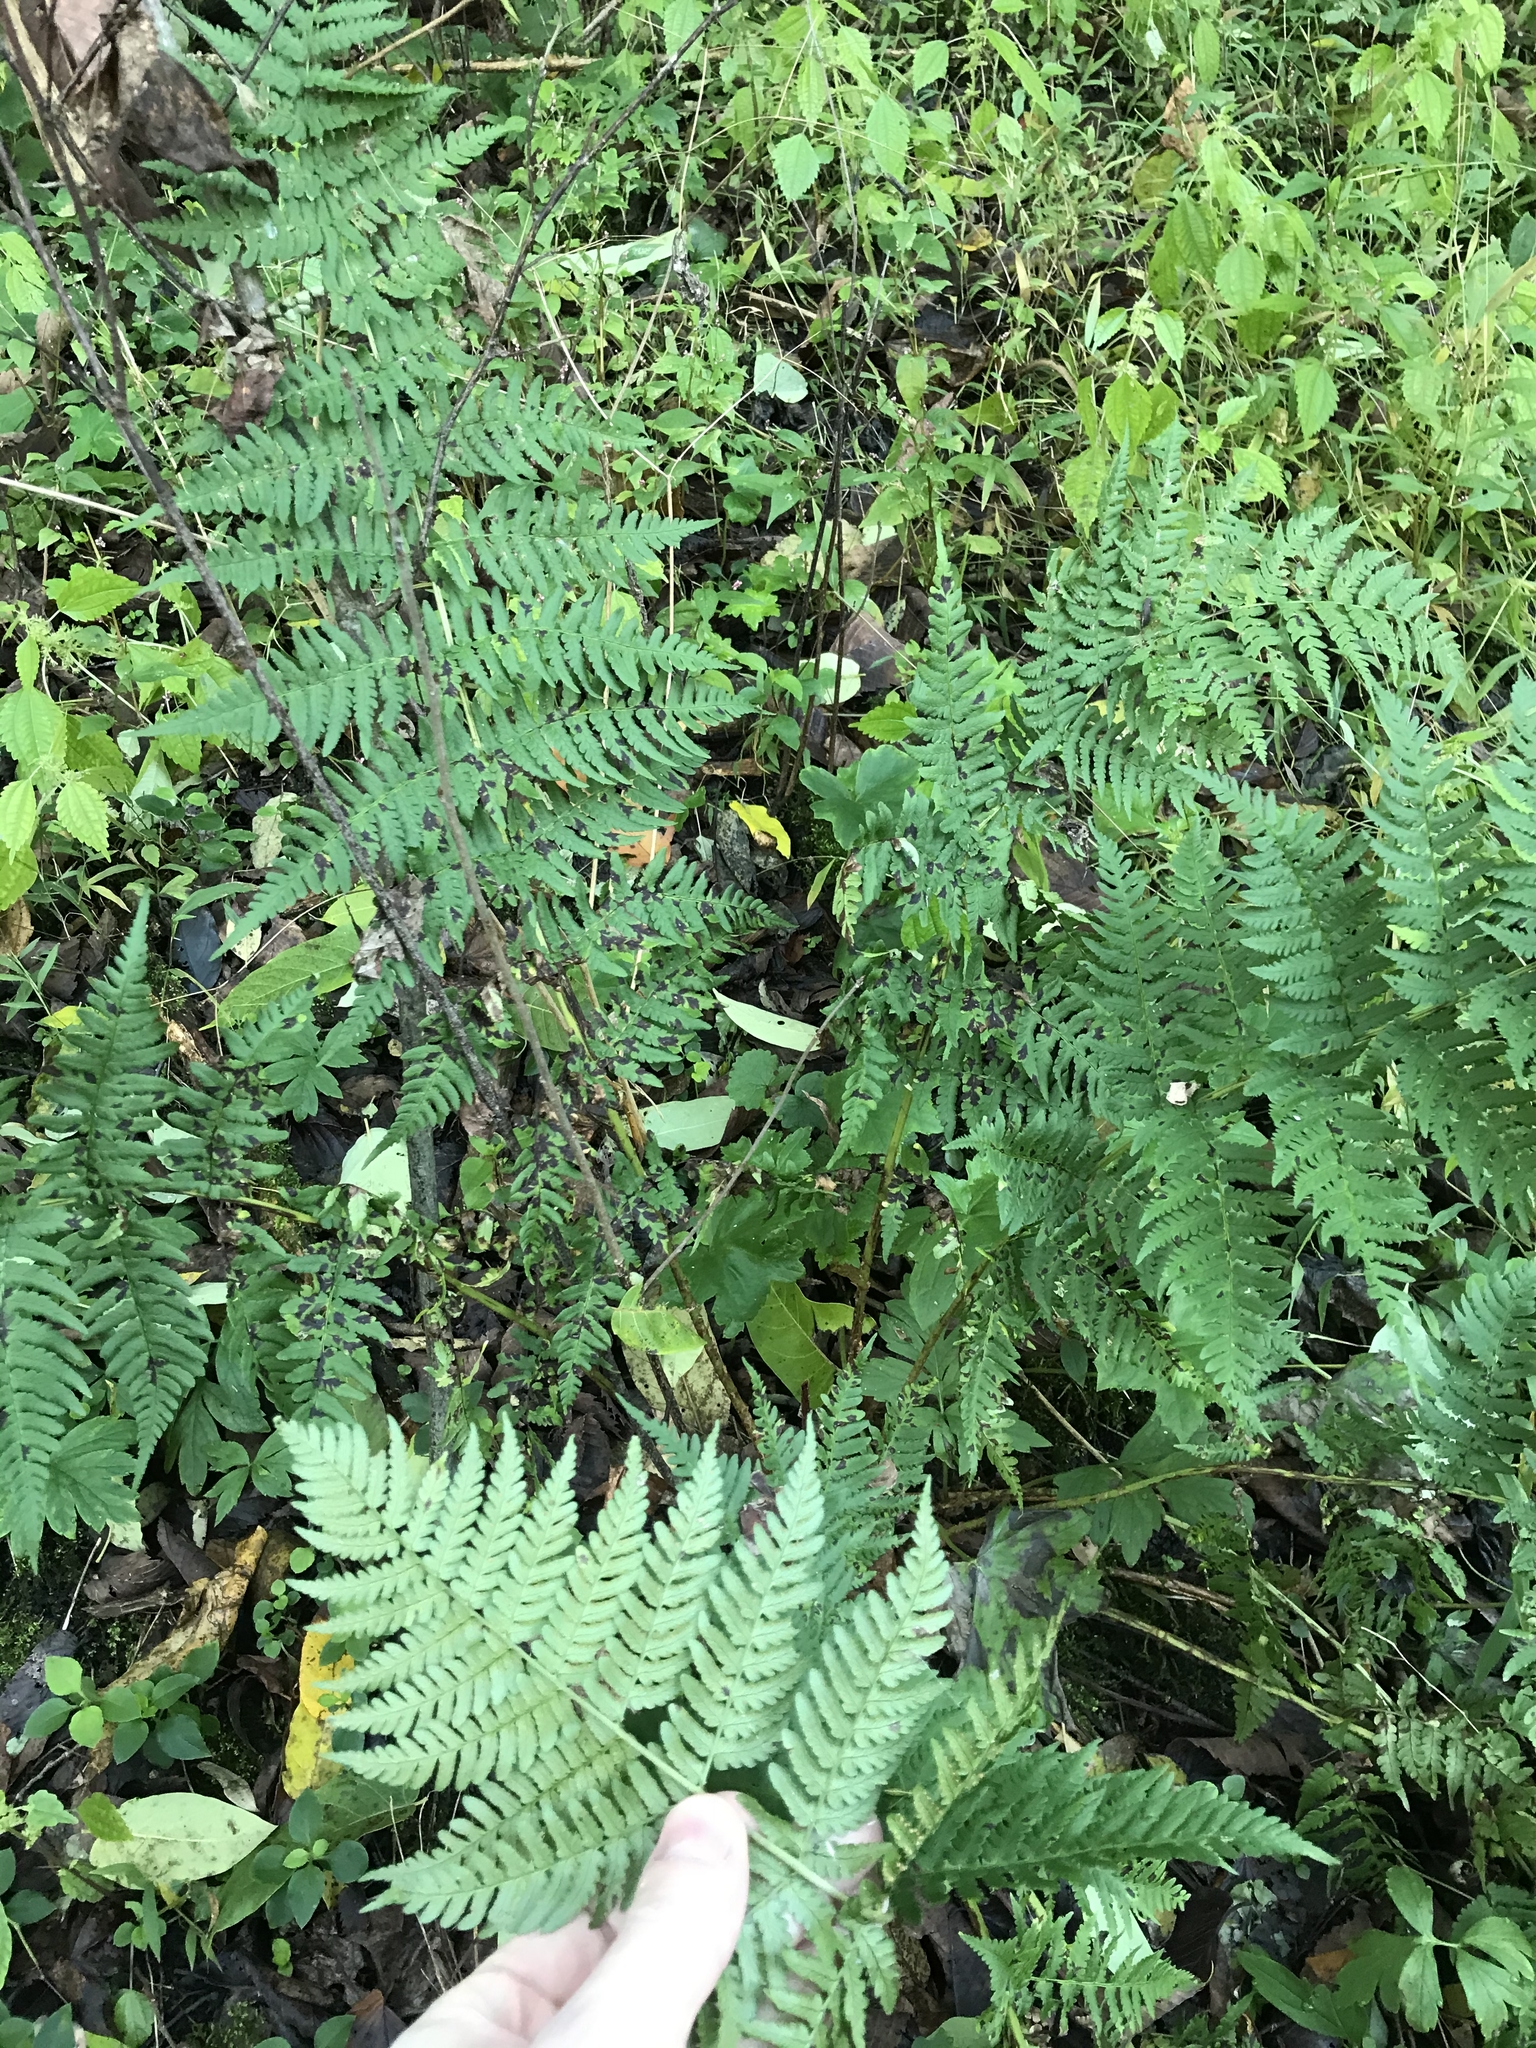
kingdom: Plantae
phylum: Tracheophyta
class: Polypodiopsida
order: Polypodiales
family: Dryopteridaceae
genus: Dryopteris
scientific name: Dryopteris marginalis
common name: Marginal wood fern
